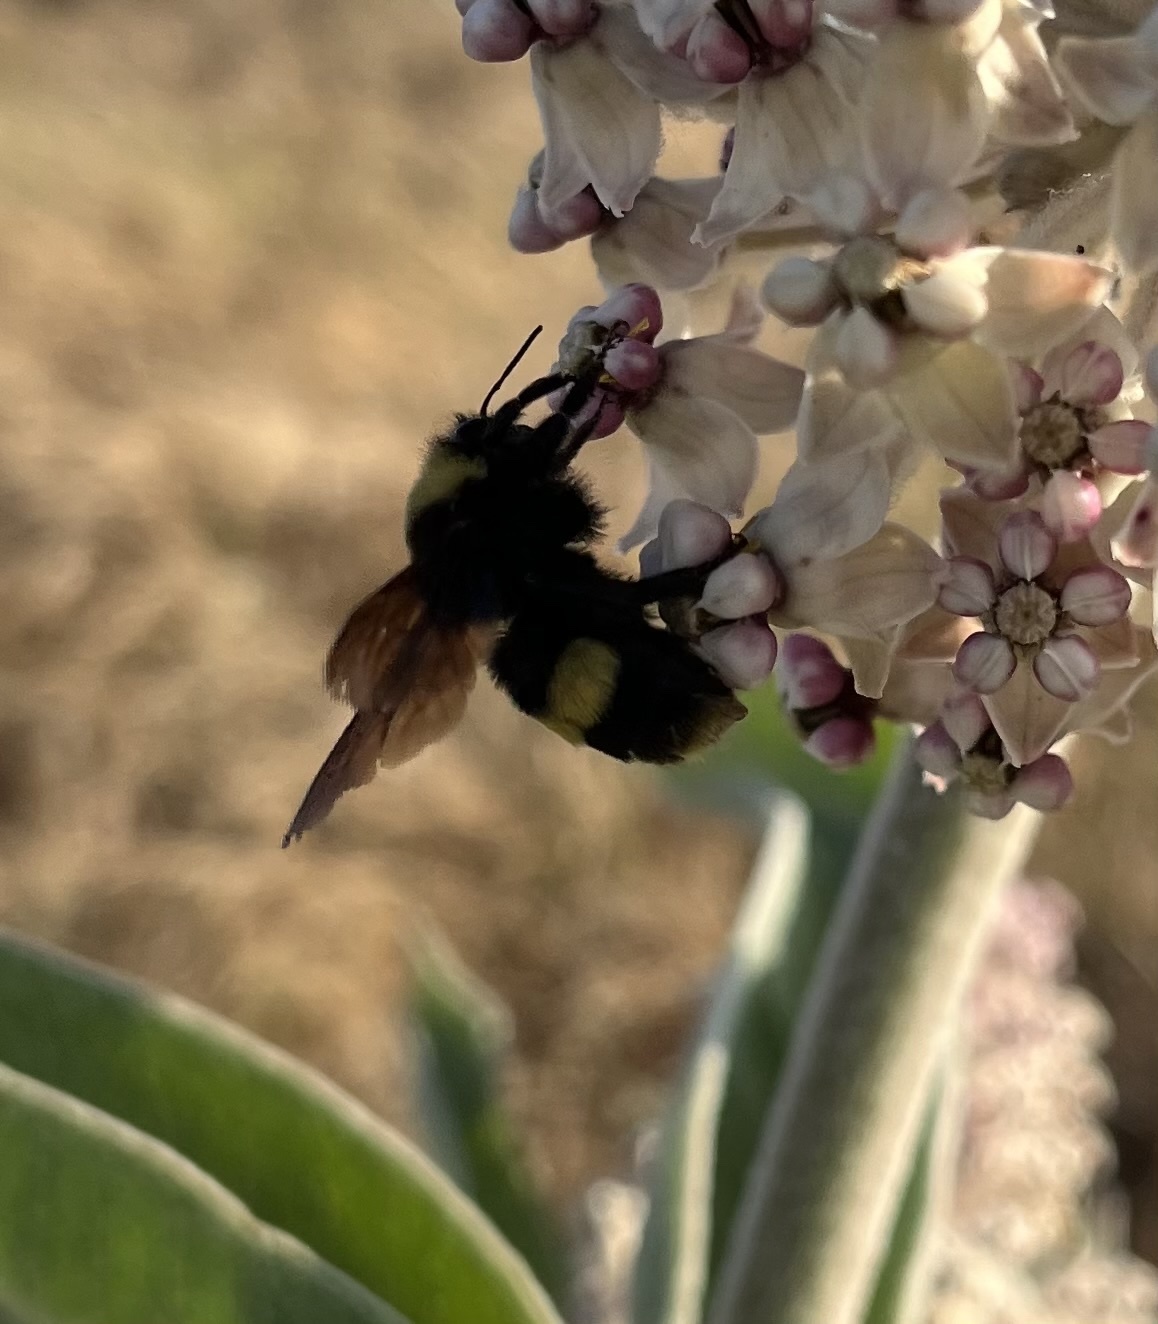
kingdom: Animalia
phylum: Arthropoda
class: Insecta
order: Hymenoptera
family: Apidae
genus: Bombus
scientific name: Bombus crotchii
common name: Crotch bumble bee
